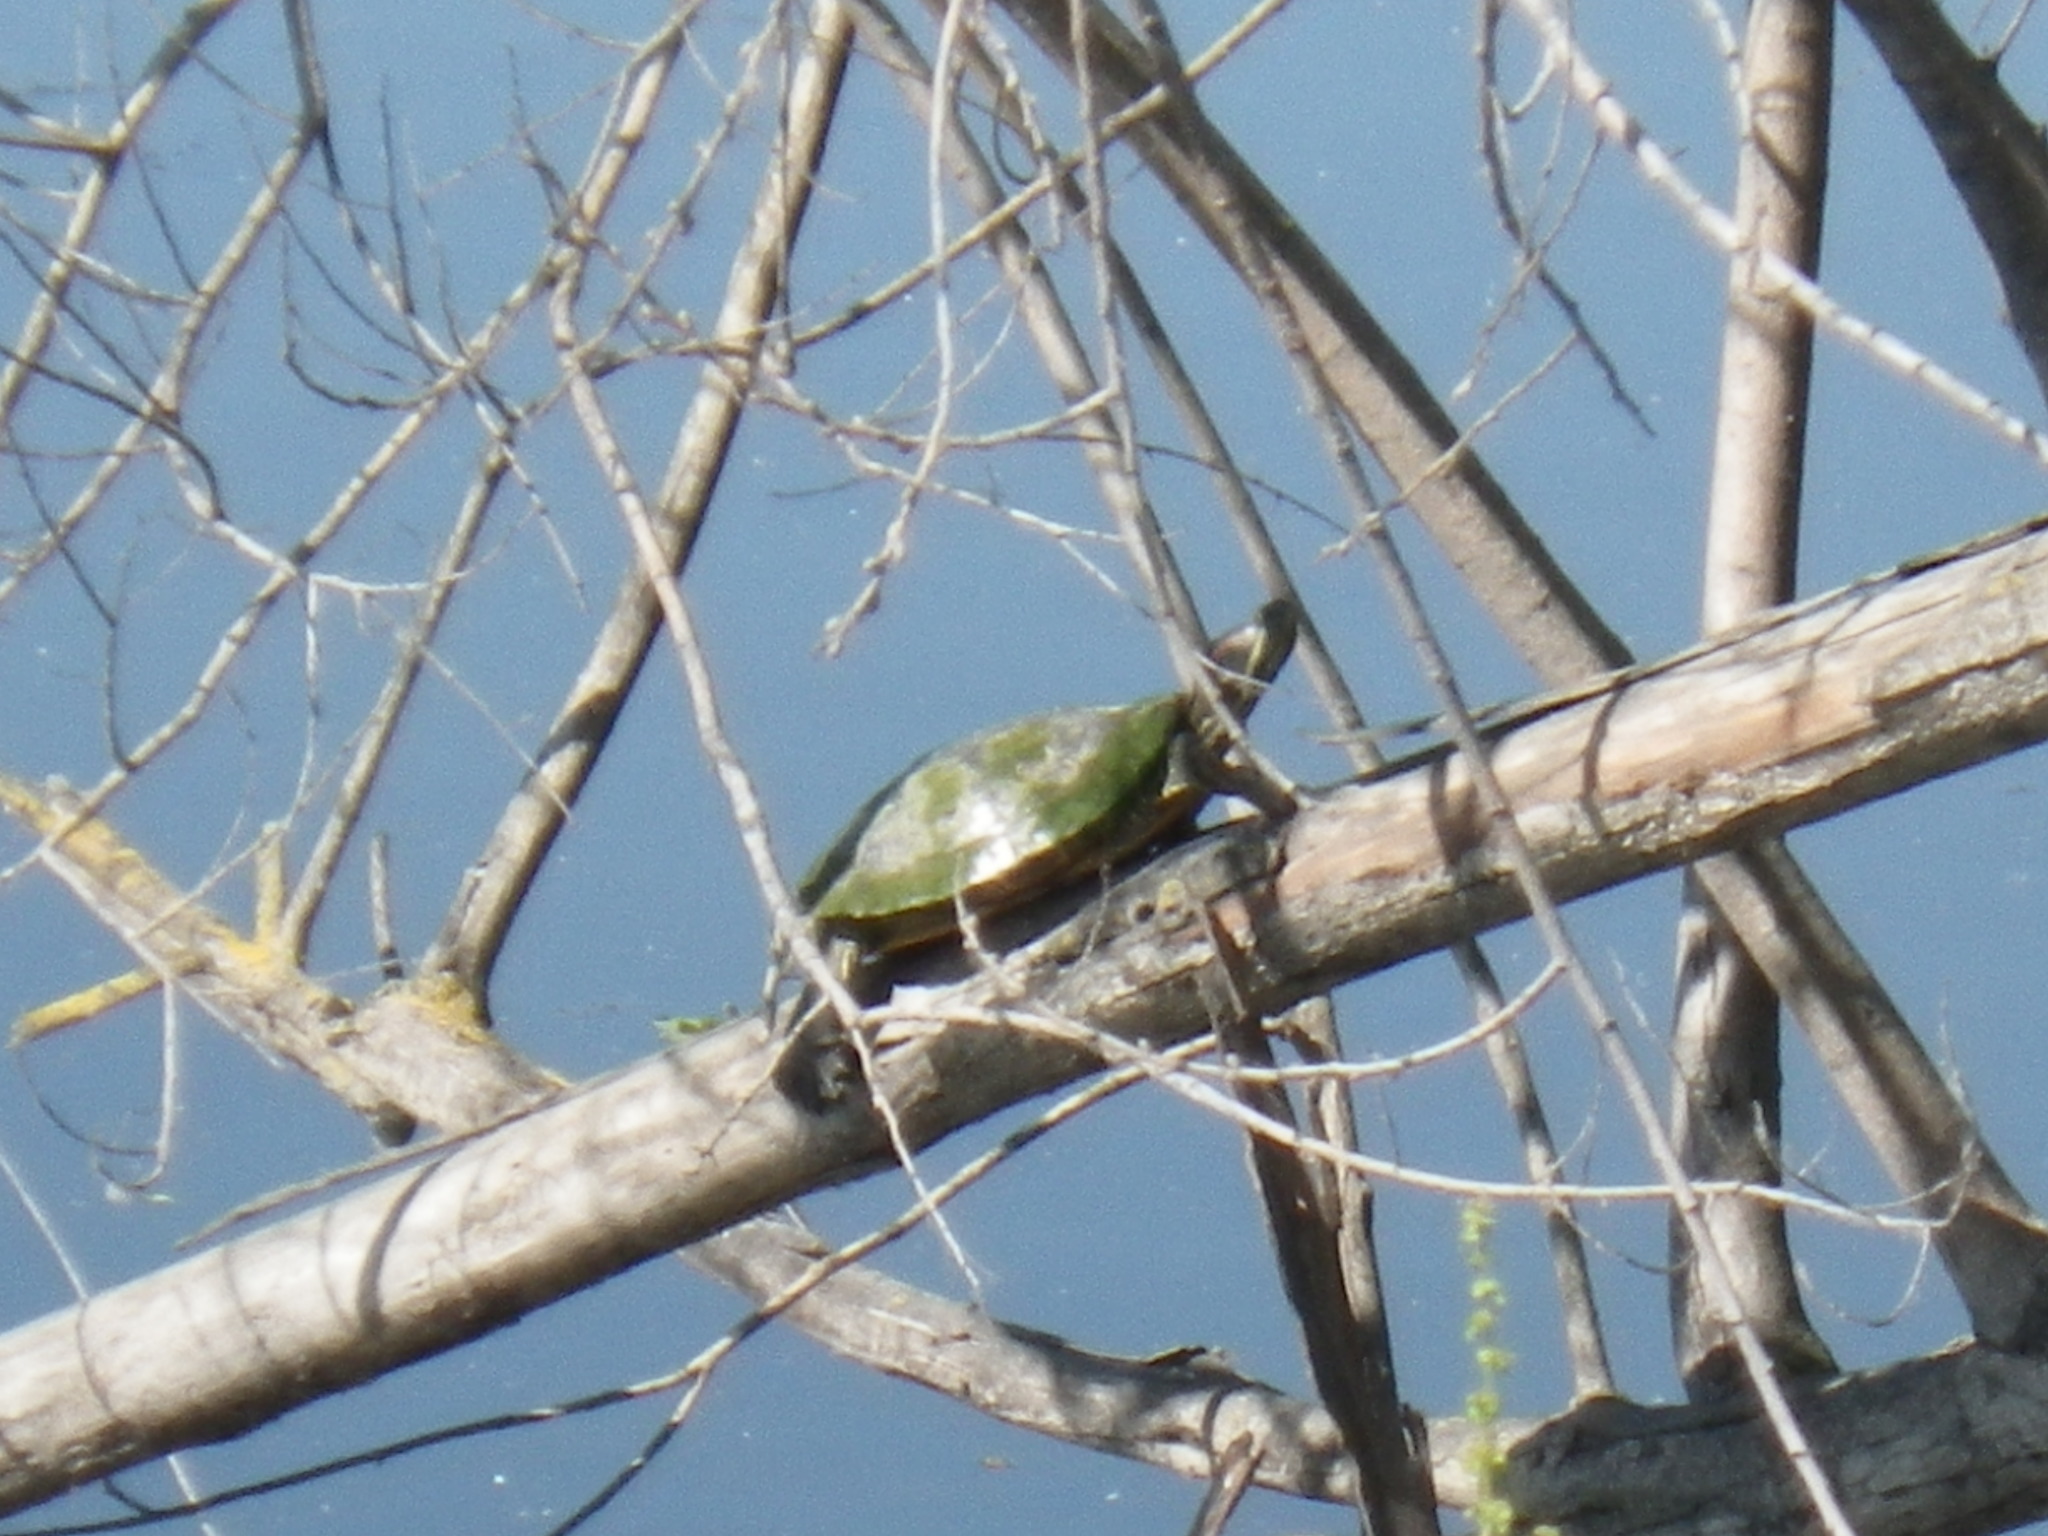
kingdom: Animalia
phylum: Chordata
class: Testudines
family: Emydidae
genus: Trachemys
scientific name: Trachemys scripta
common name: Slider
